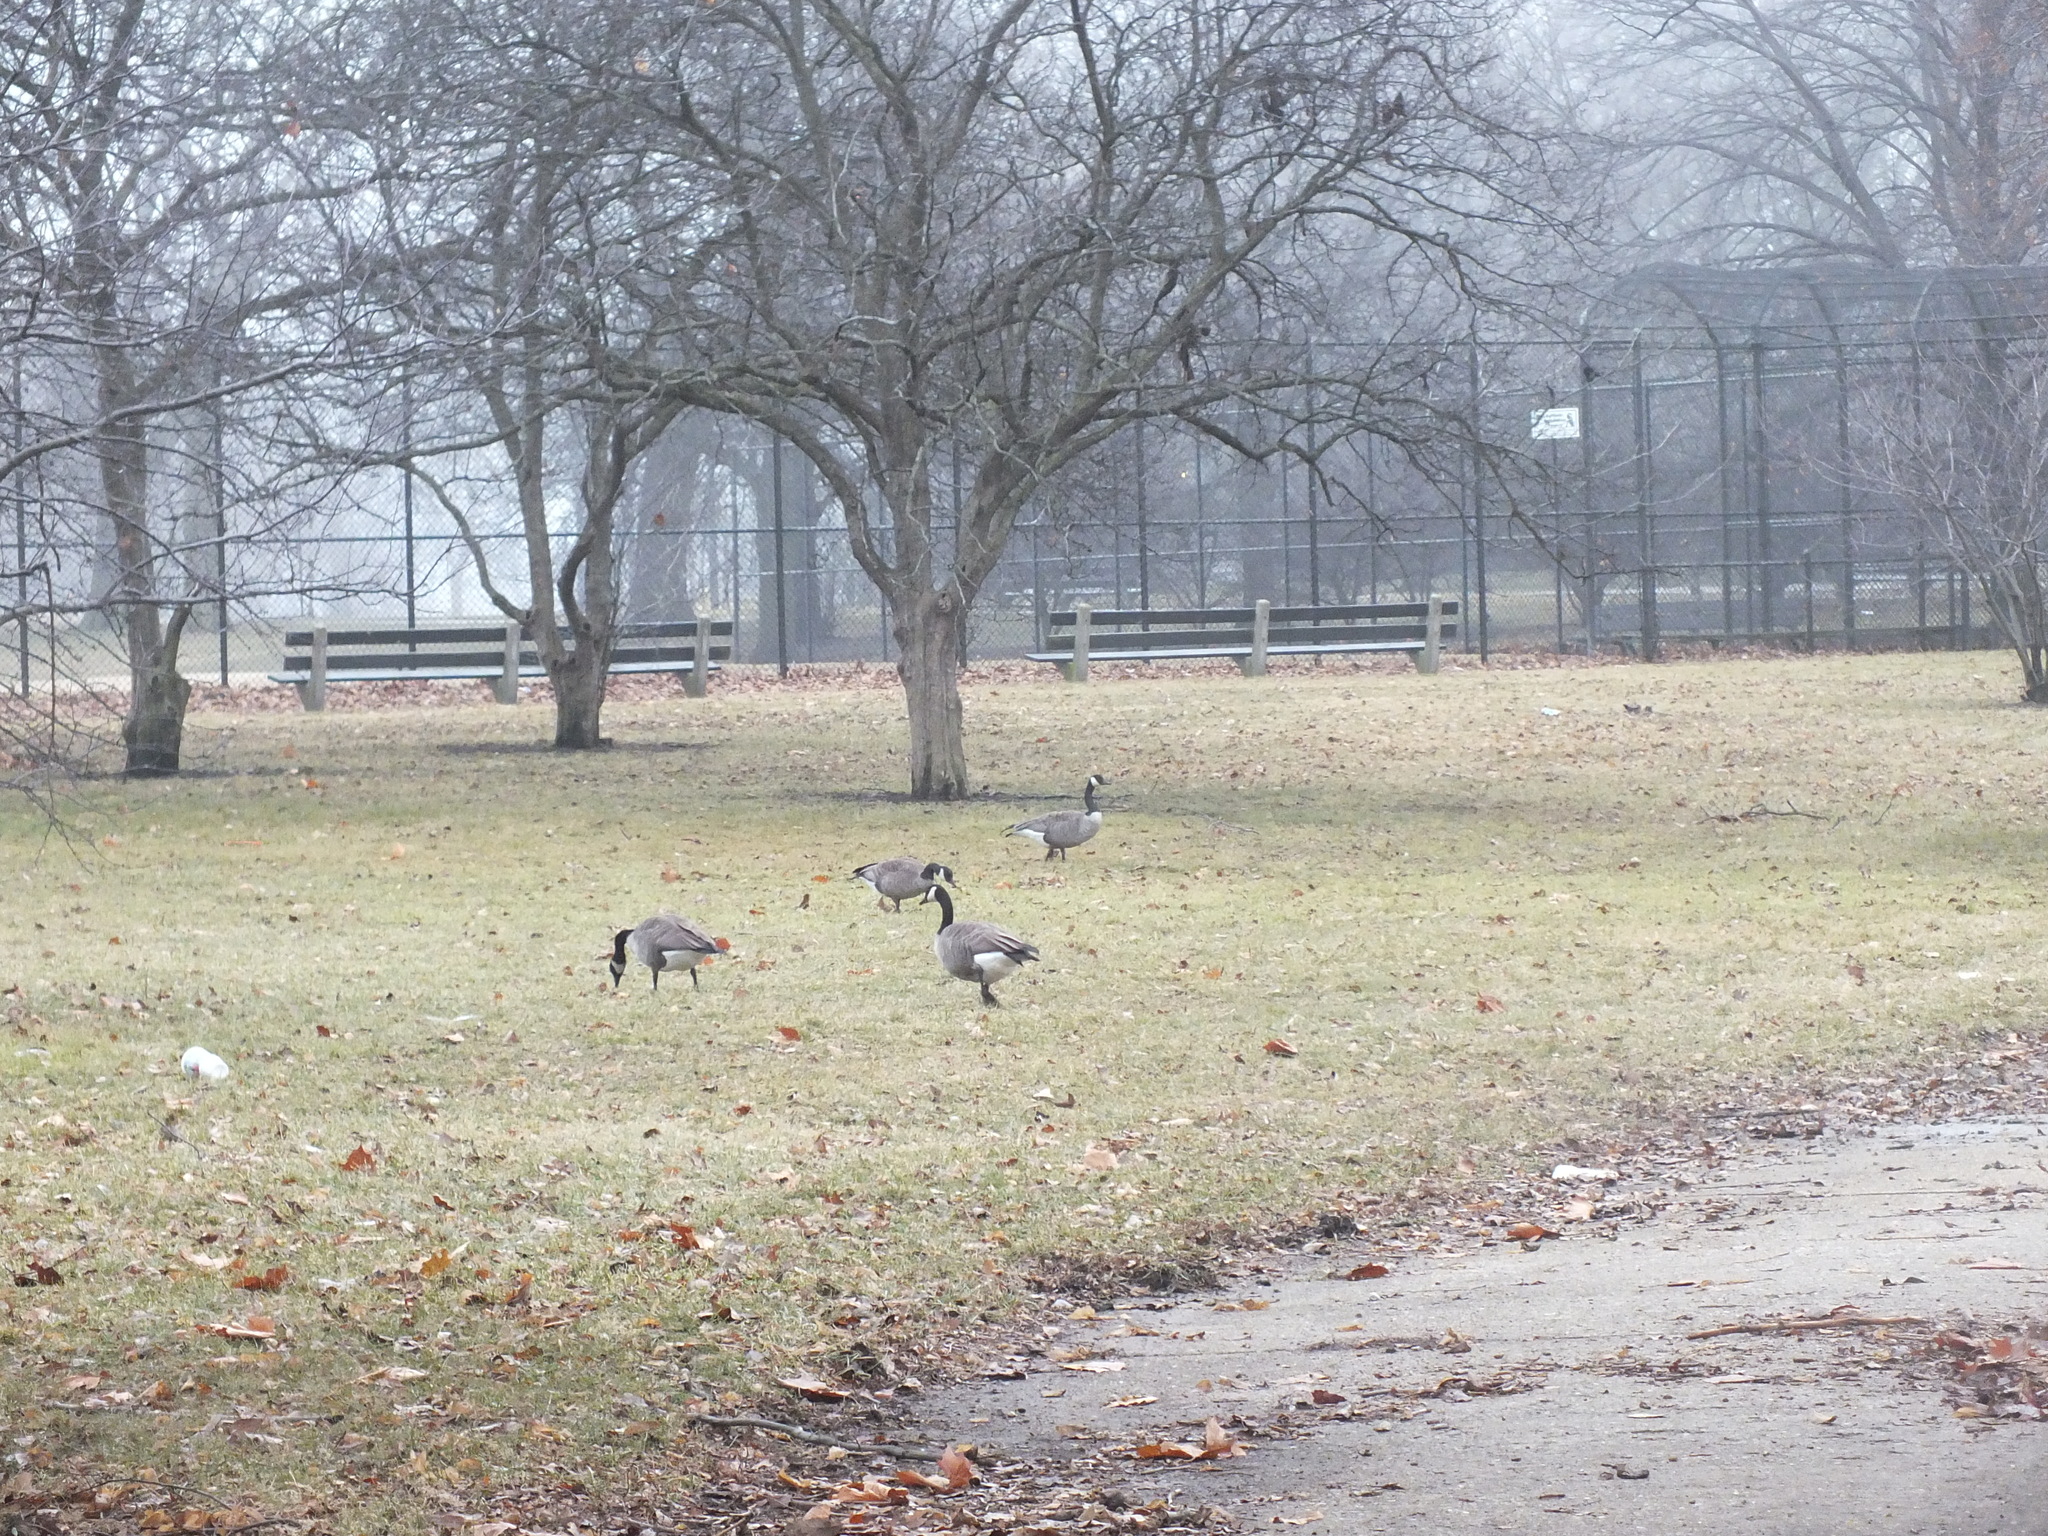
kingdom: Animalia
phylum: Chordata
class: Aves
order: Anseriformes
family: Anatidae
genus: Branta
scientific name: Branta canadensis
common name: Canada goose
